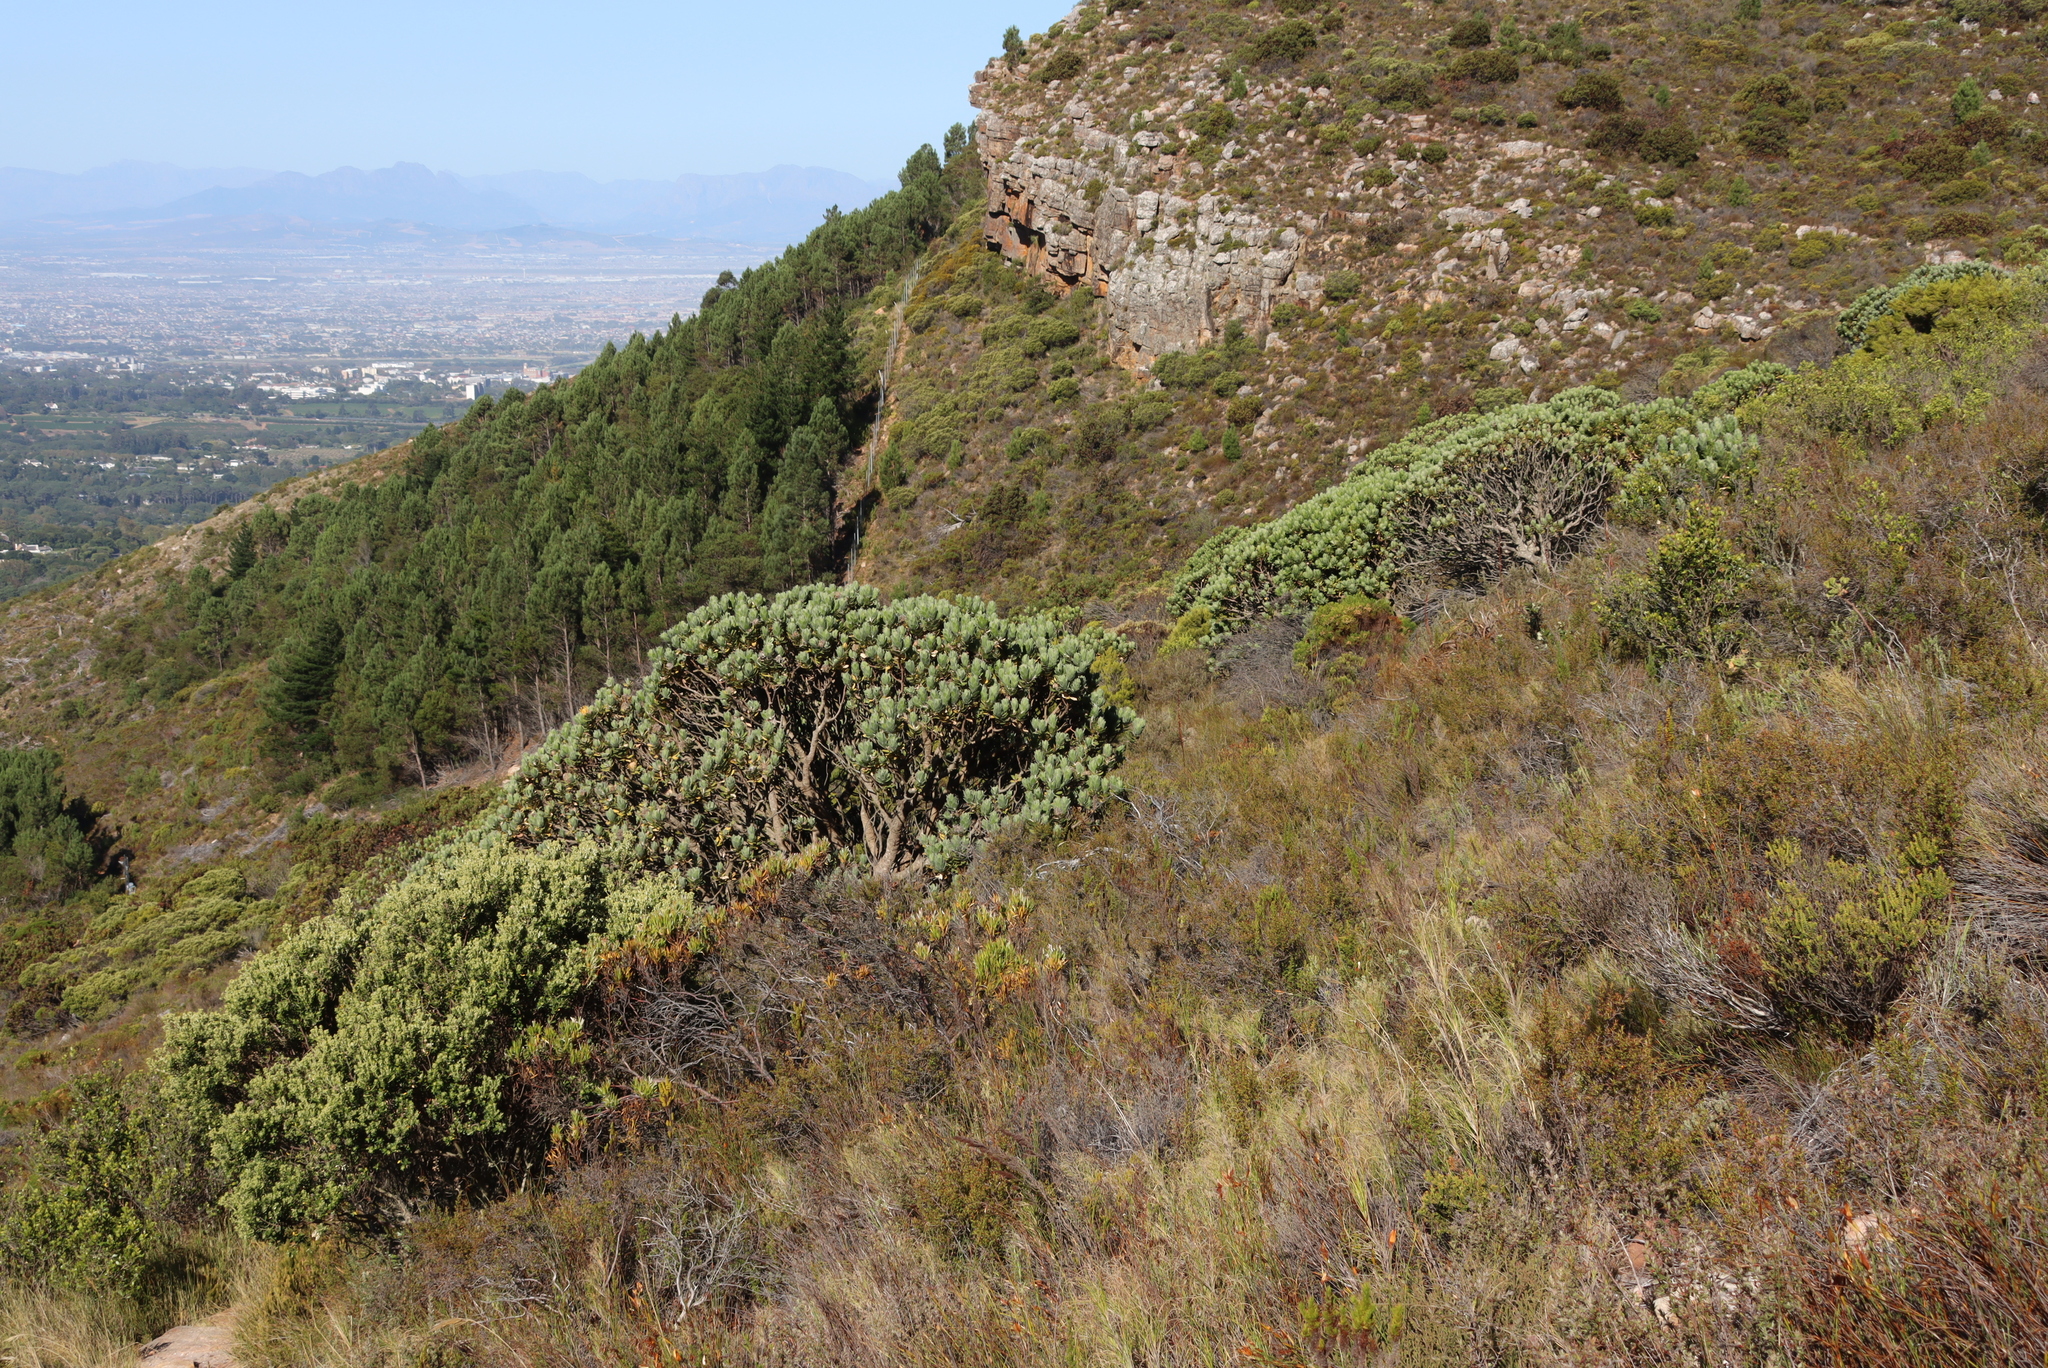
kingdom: Plantae
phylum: Tracheophyta
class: Magnoliopsida
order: Proteales
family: Proteaceae
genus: Leucospermum
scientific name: Leucospermum conocarpodendron
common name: Tree pincushion
